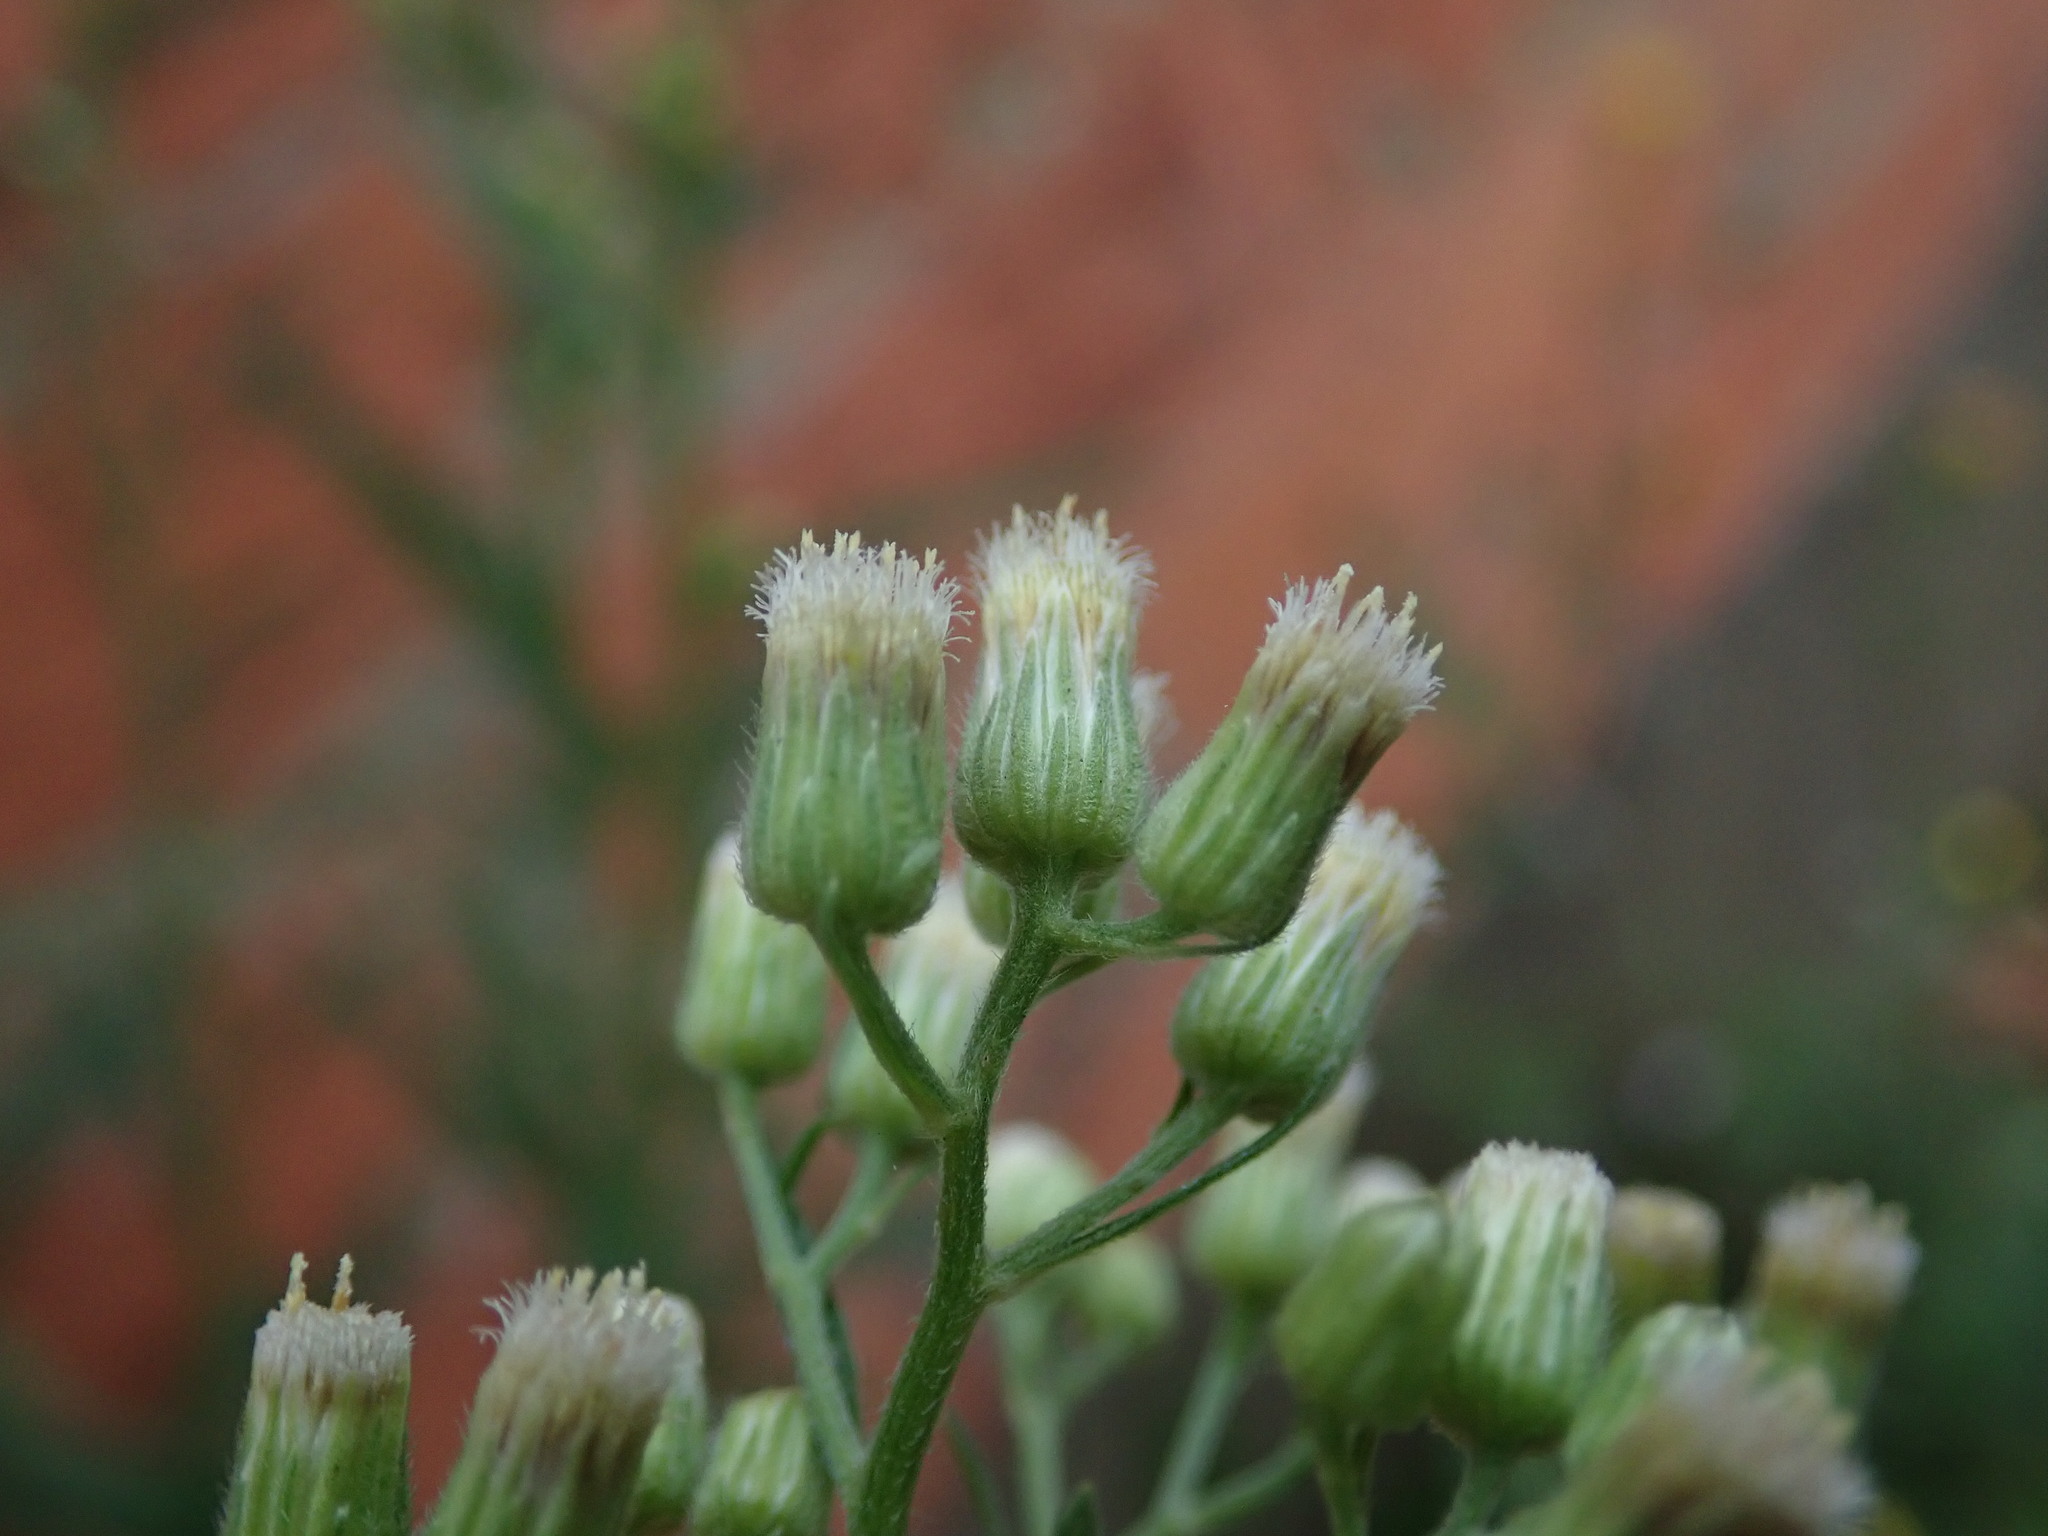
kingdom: Plantae
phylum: Tracheophyta
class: Magnoliopsida
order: Asterales
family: Asteraceae
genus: Erigeron
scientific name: Erigeron sumatrensis
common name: Daisy
